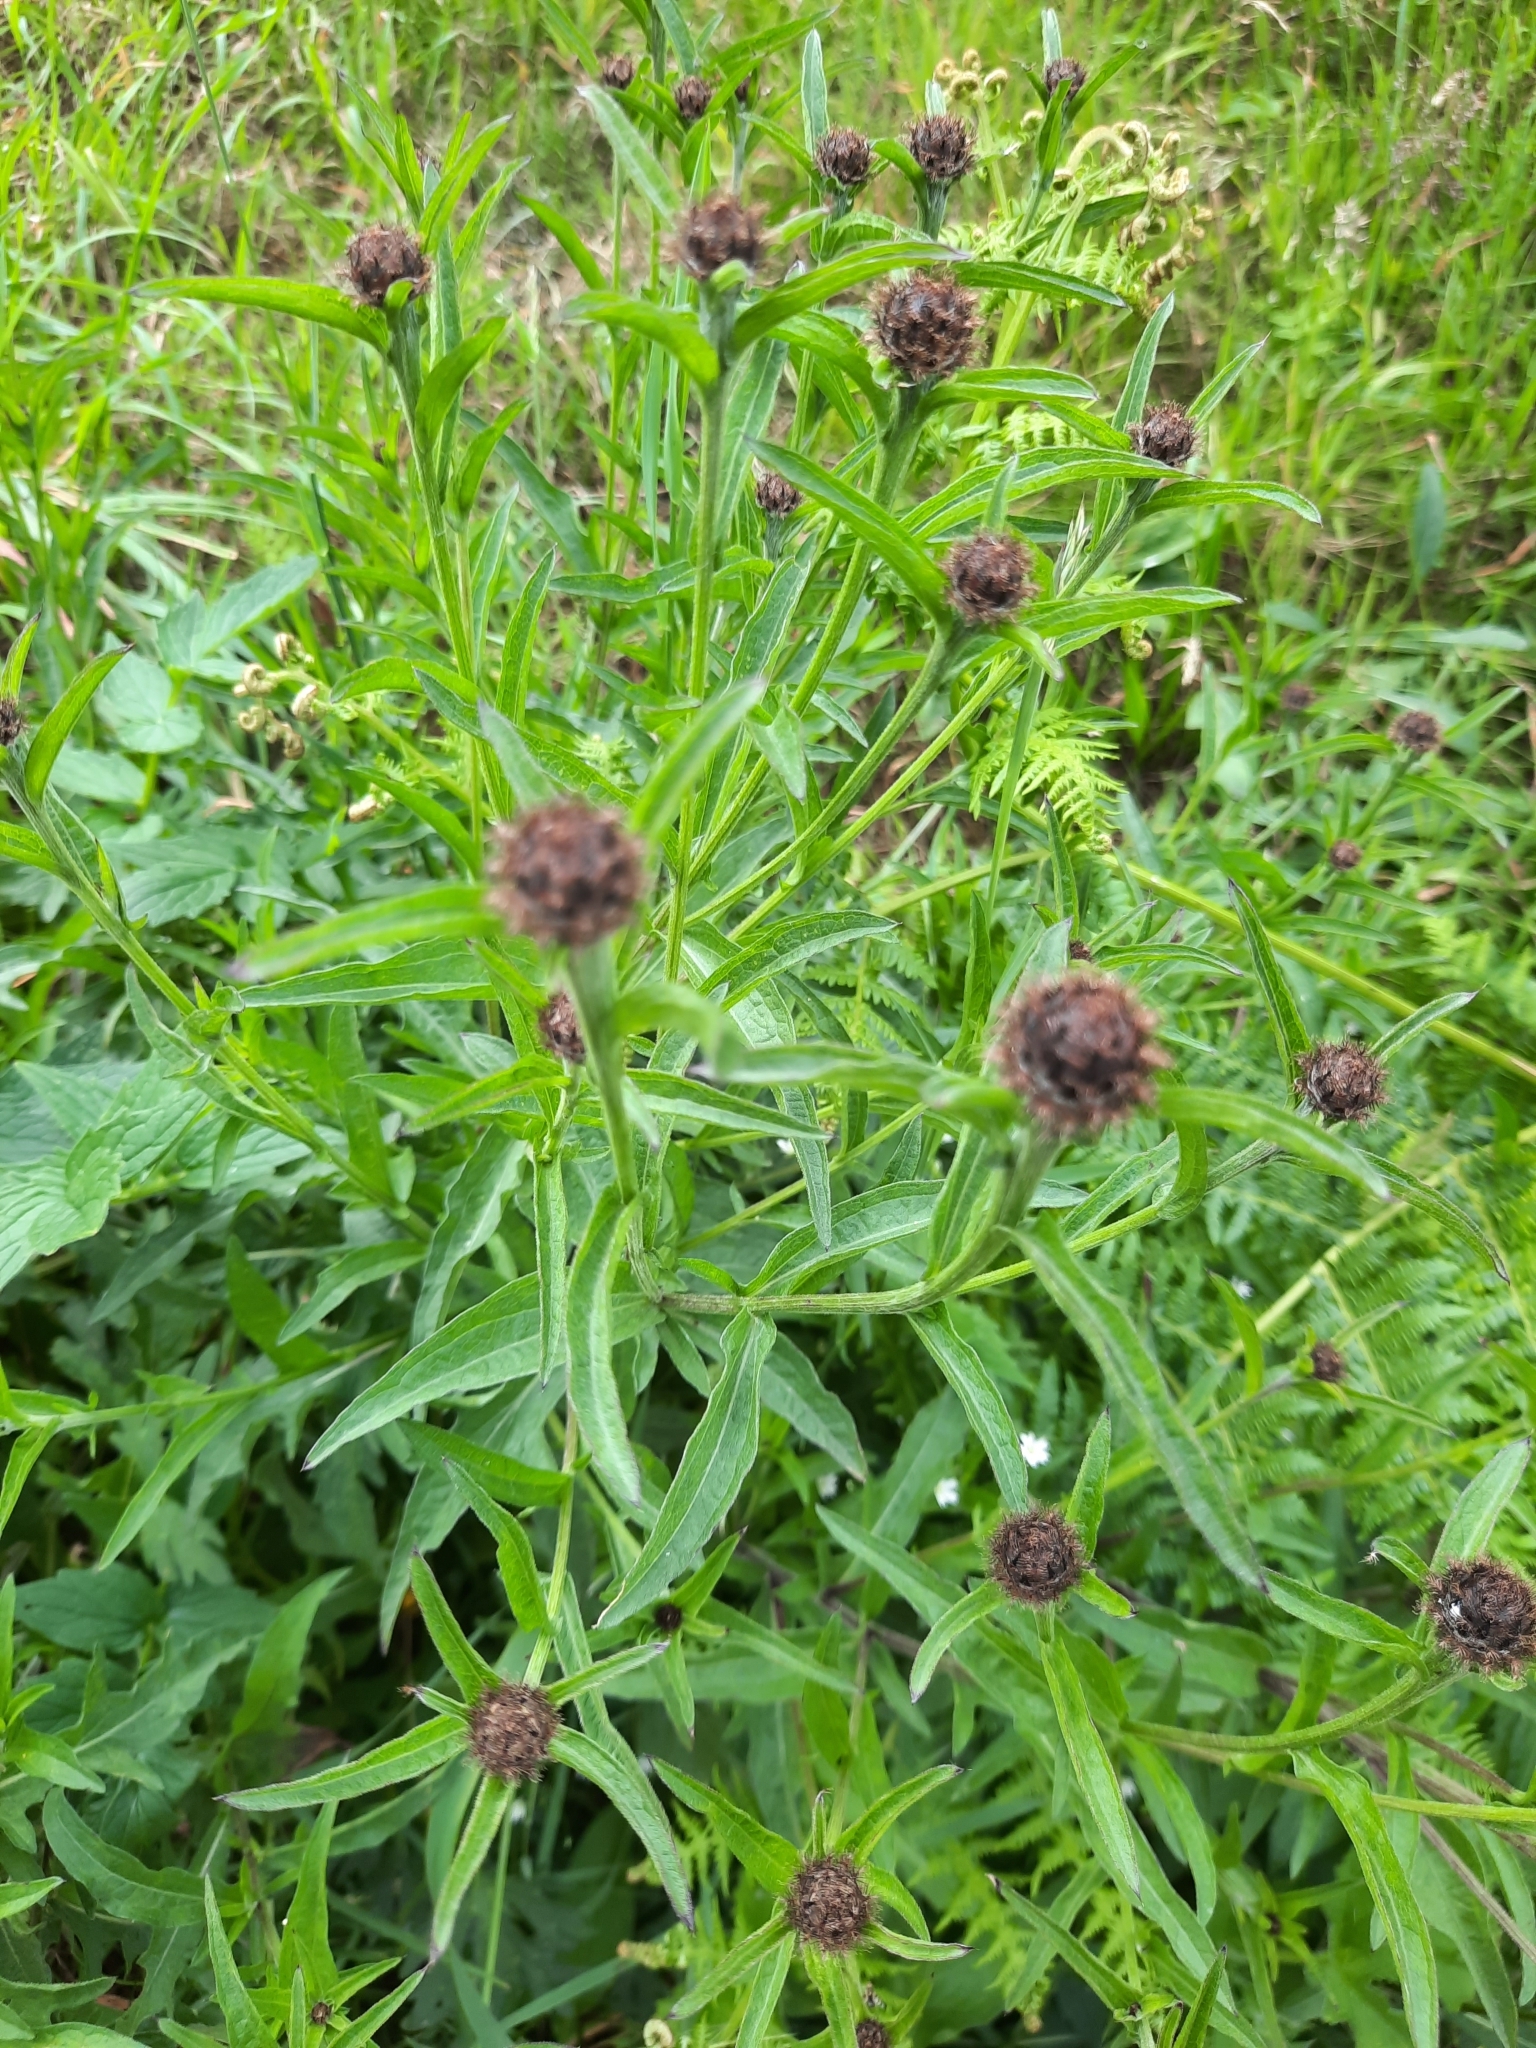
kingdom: Plantae
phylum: Tracheophyta
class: Magnoliopsida
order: Asterales
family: Asteraceae
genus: Centaurea
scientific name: Centaurea nigra
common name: Lesser knapweed
